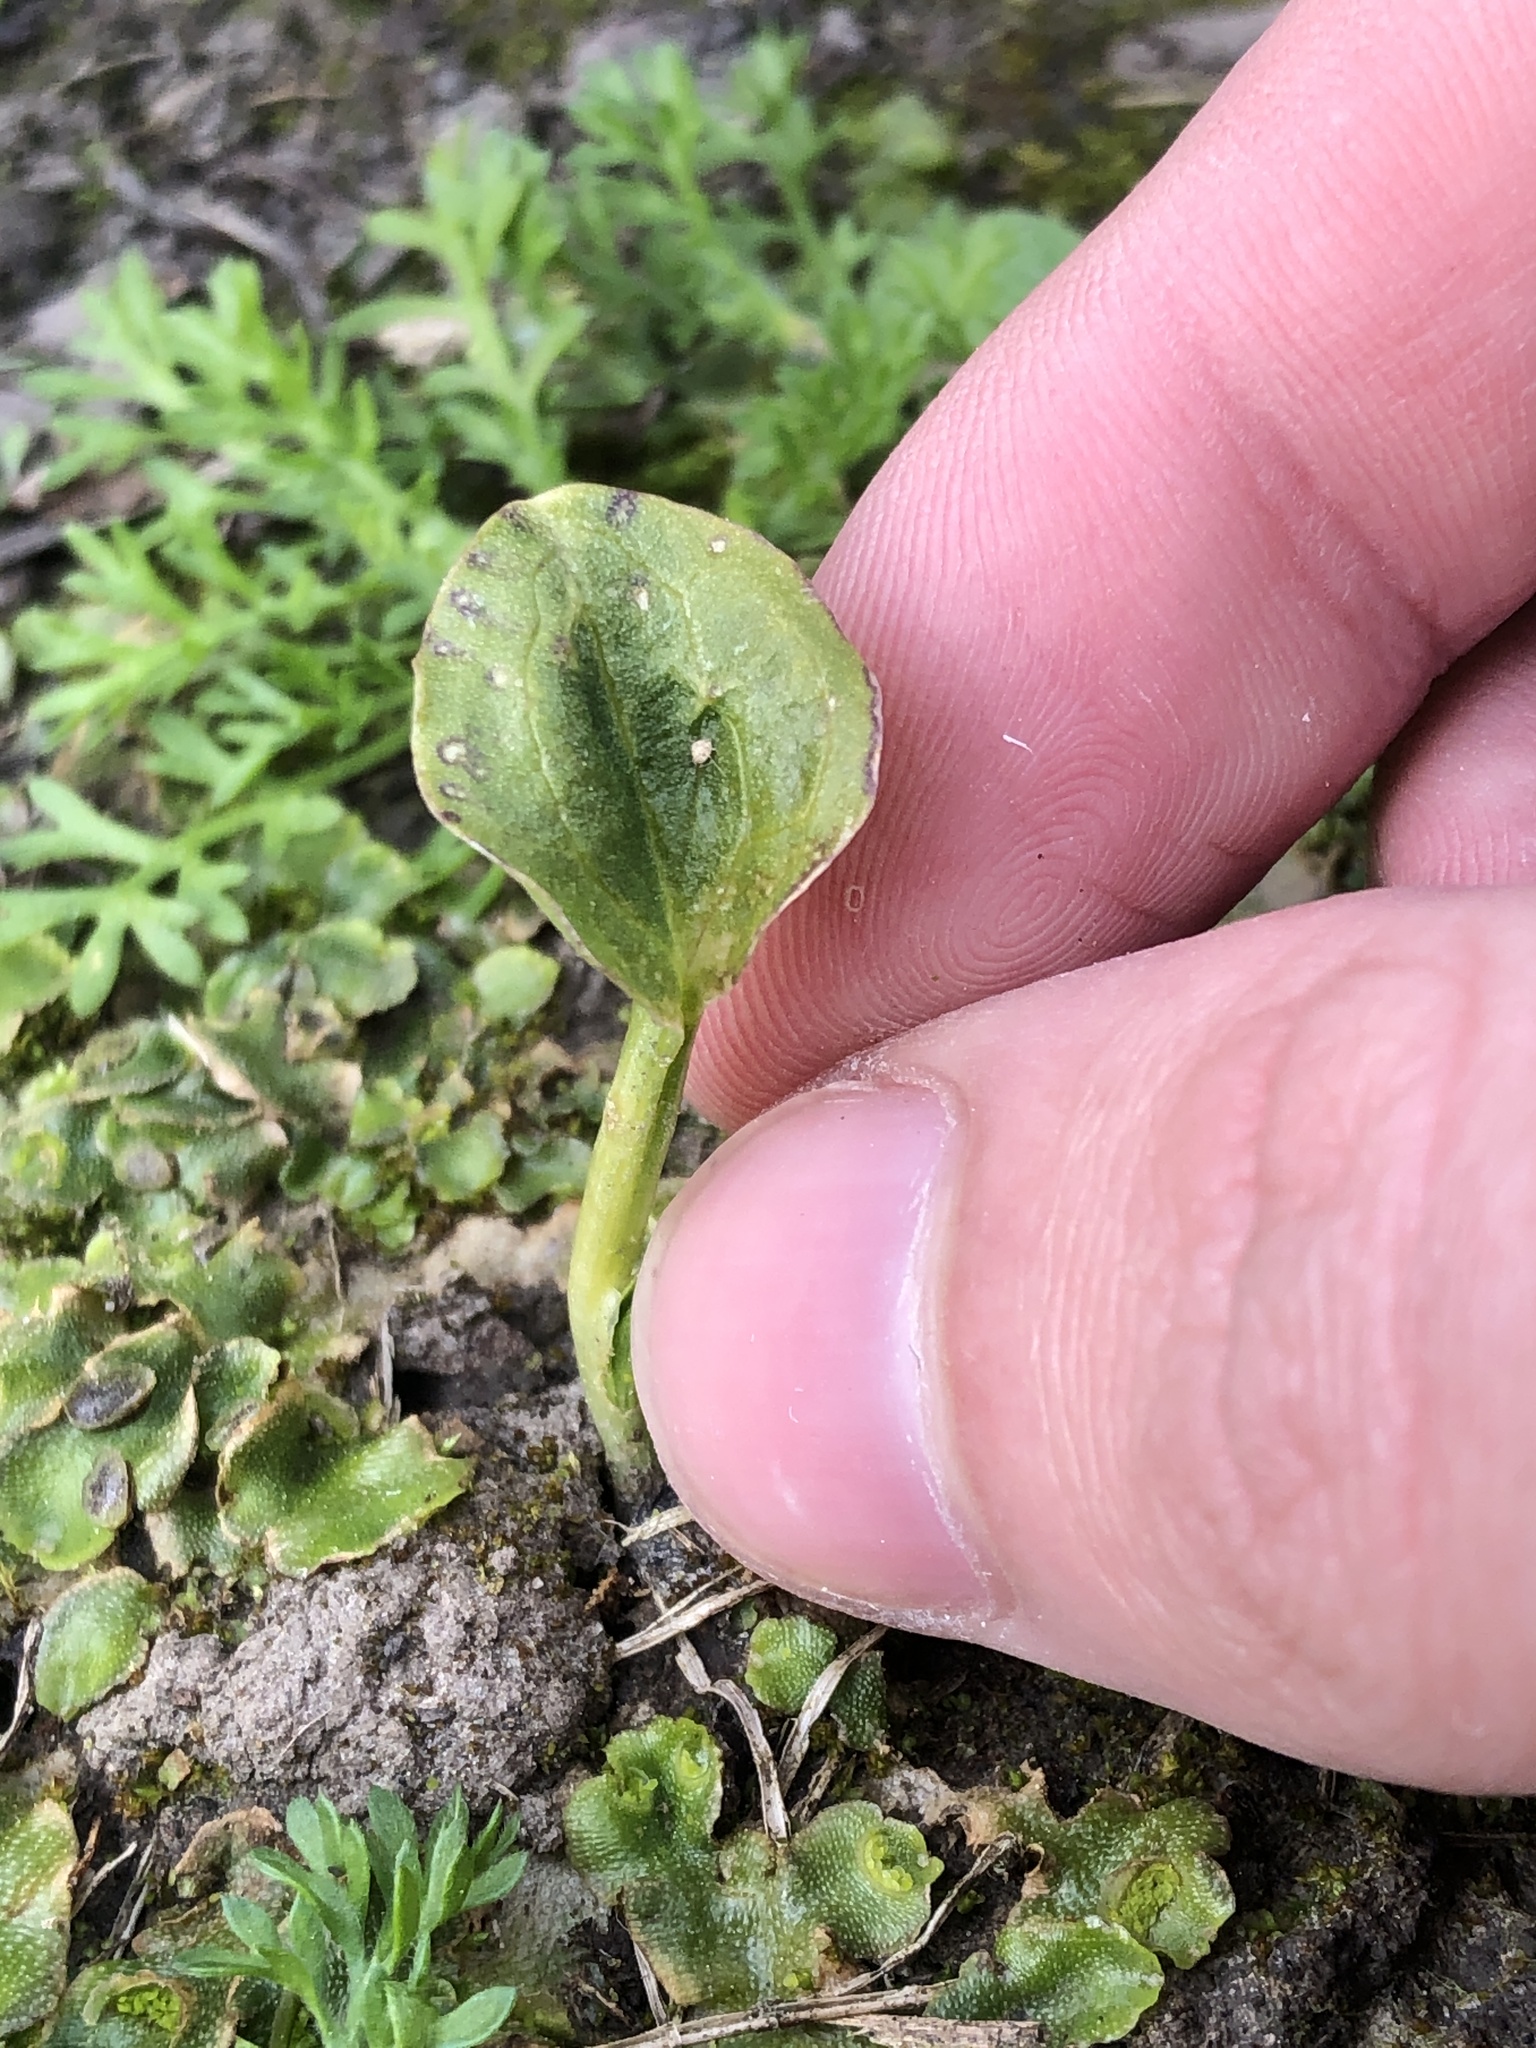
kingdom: Plantae
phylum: Tracheophyta
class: Liliopsida
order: Alismatales
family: Araceae
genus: Zantedeschia
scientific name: Zantedeschia aethiopica
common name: Altar-lily
